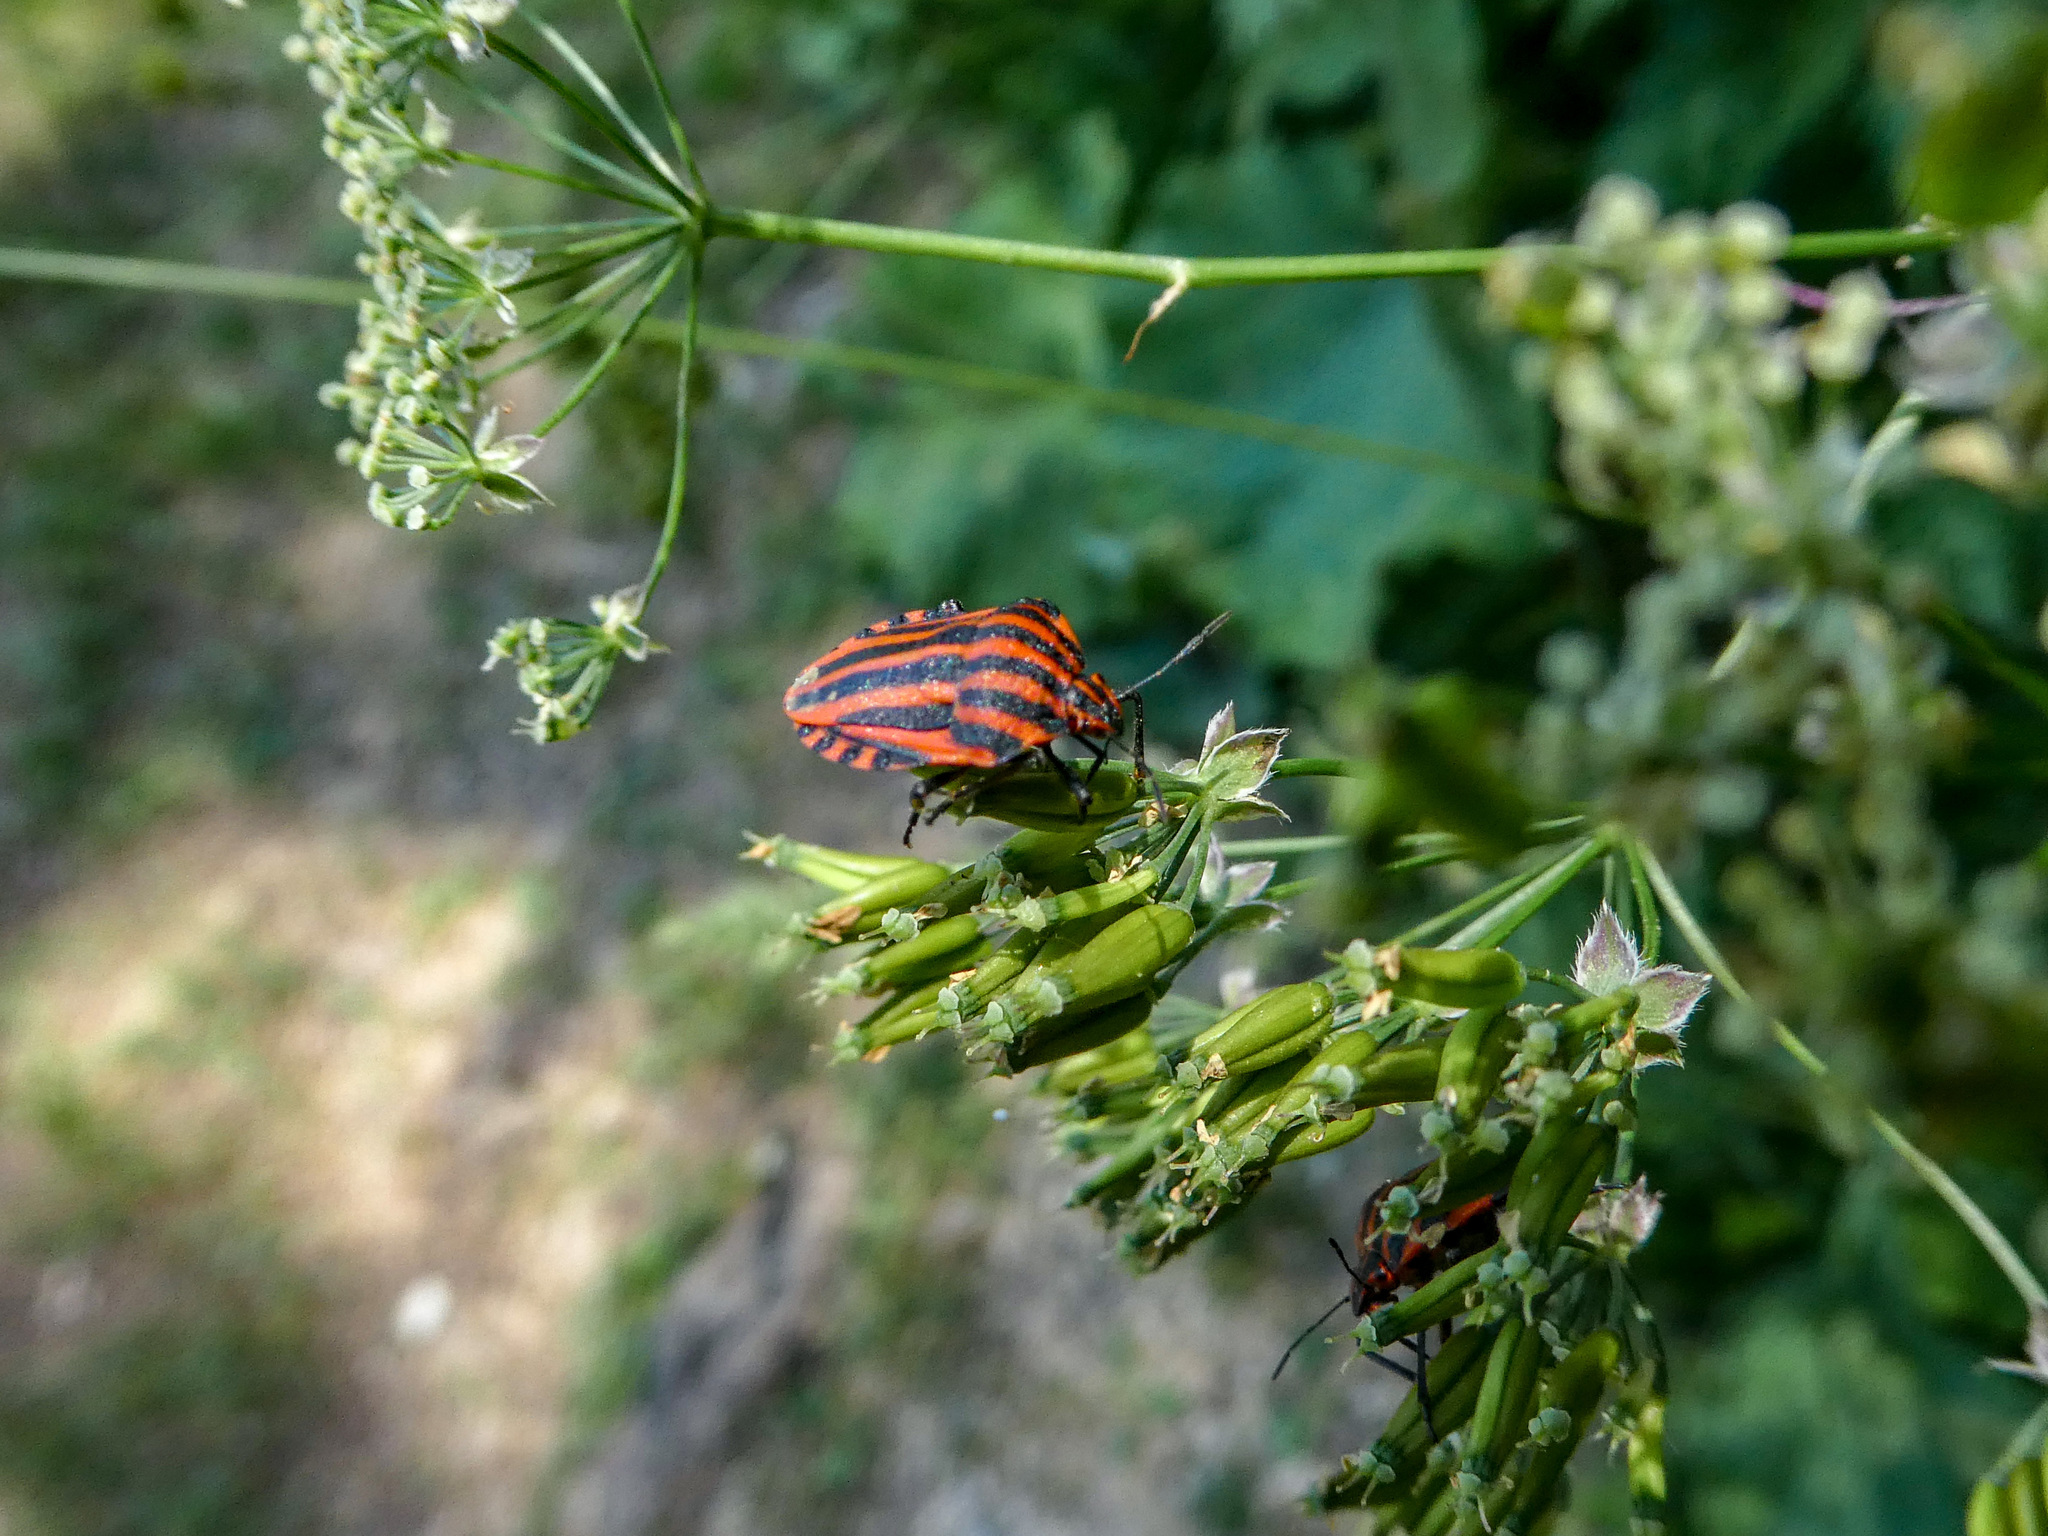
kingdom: Animalia
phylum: Arthropoda
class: Insecta
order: Hemiptera
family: Pentatomidae
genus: Graphosoma
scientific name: Graphosoma italicum
